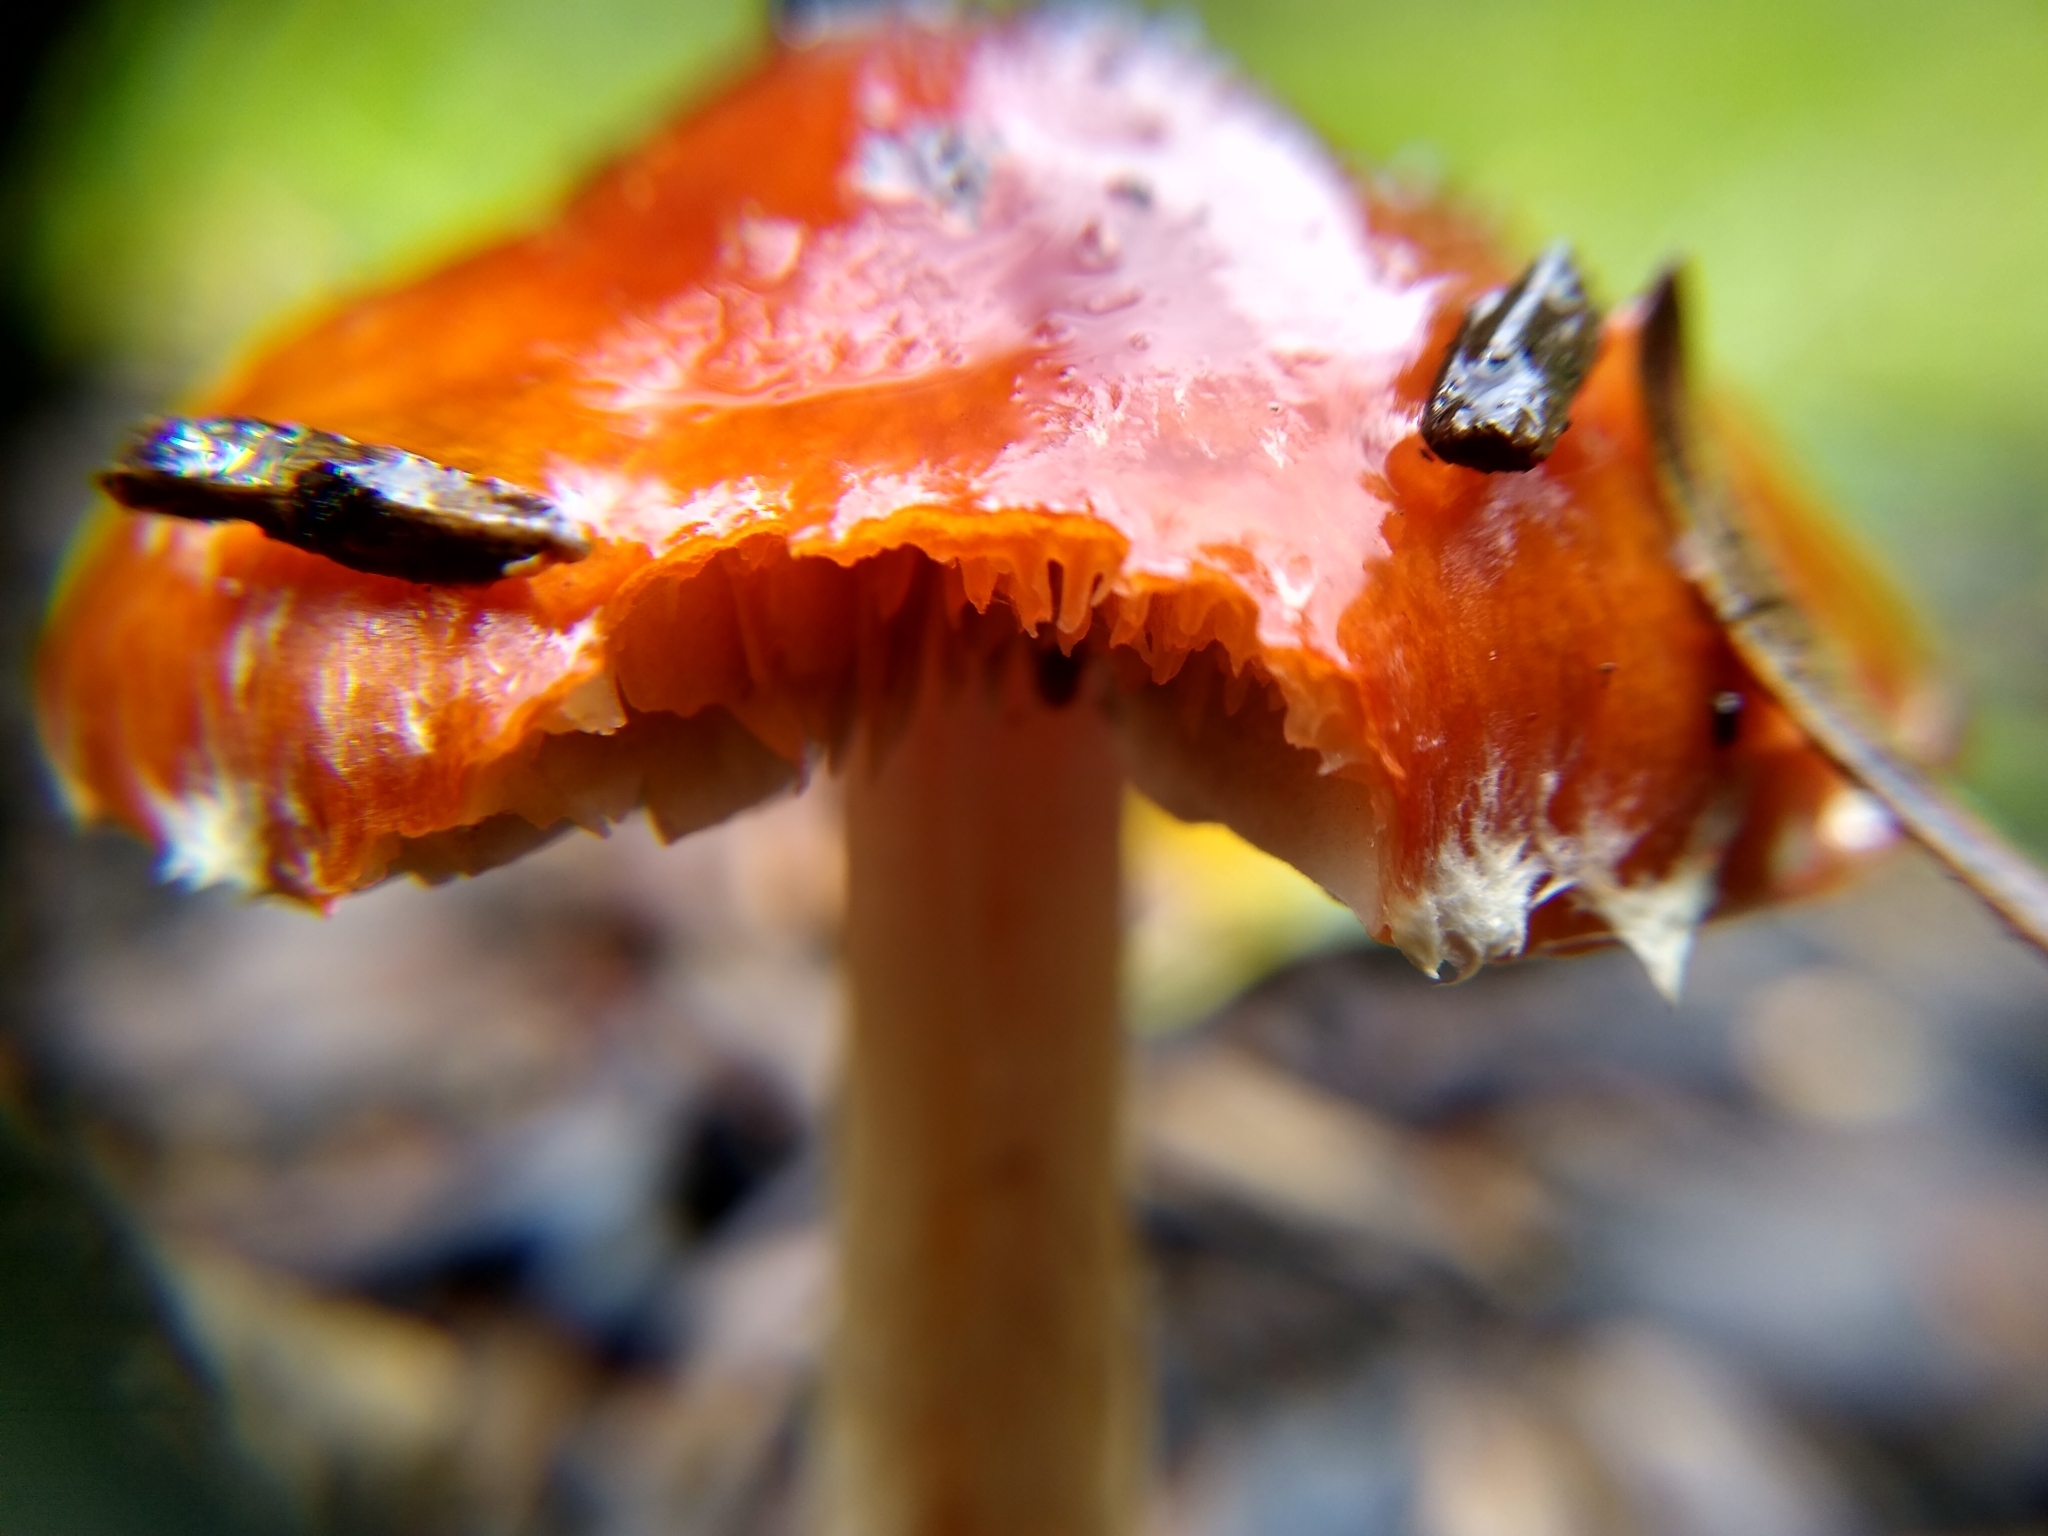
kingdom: Fungi
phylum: Basidiomycota
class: Agaricomycetes
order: Agaricales
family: Strophariaceae
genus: Leratiomyces
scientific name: Leratiomyces ceres
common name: Redlead roundhead
